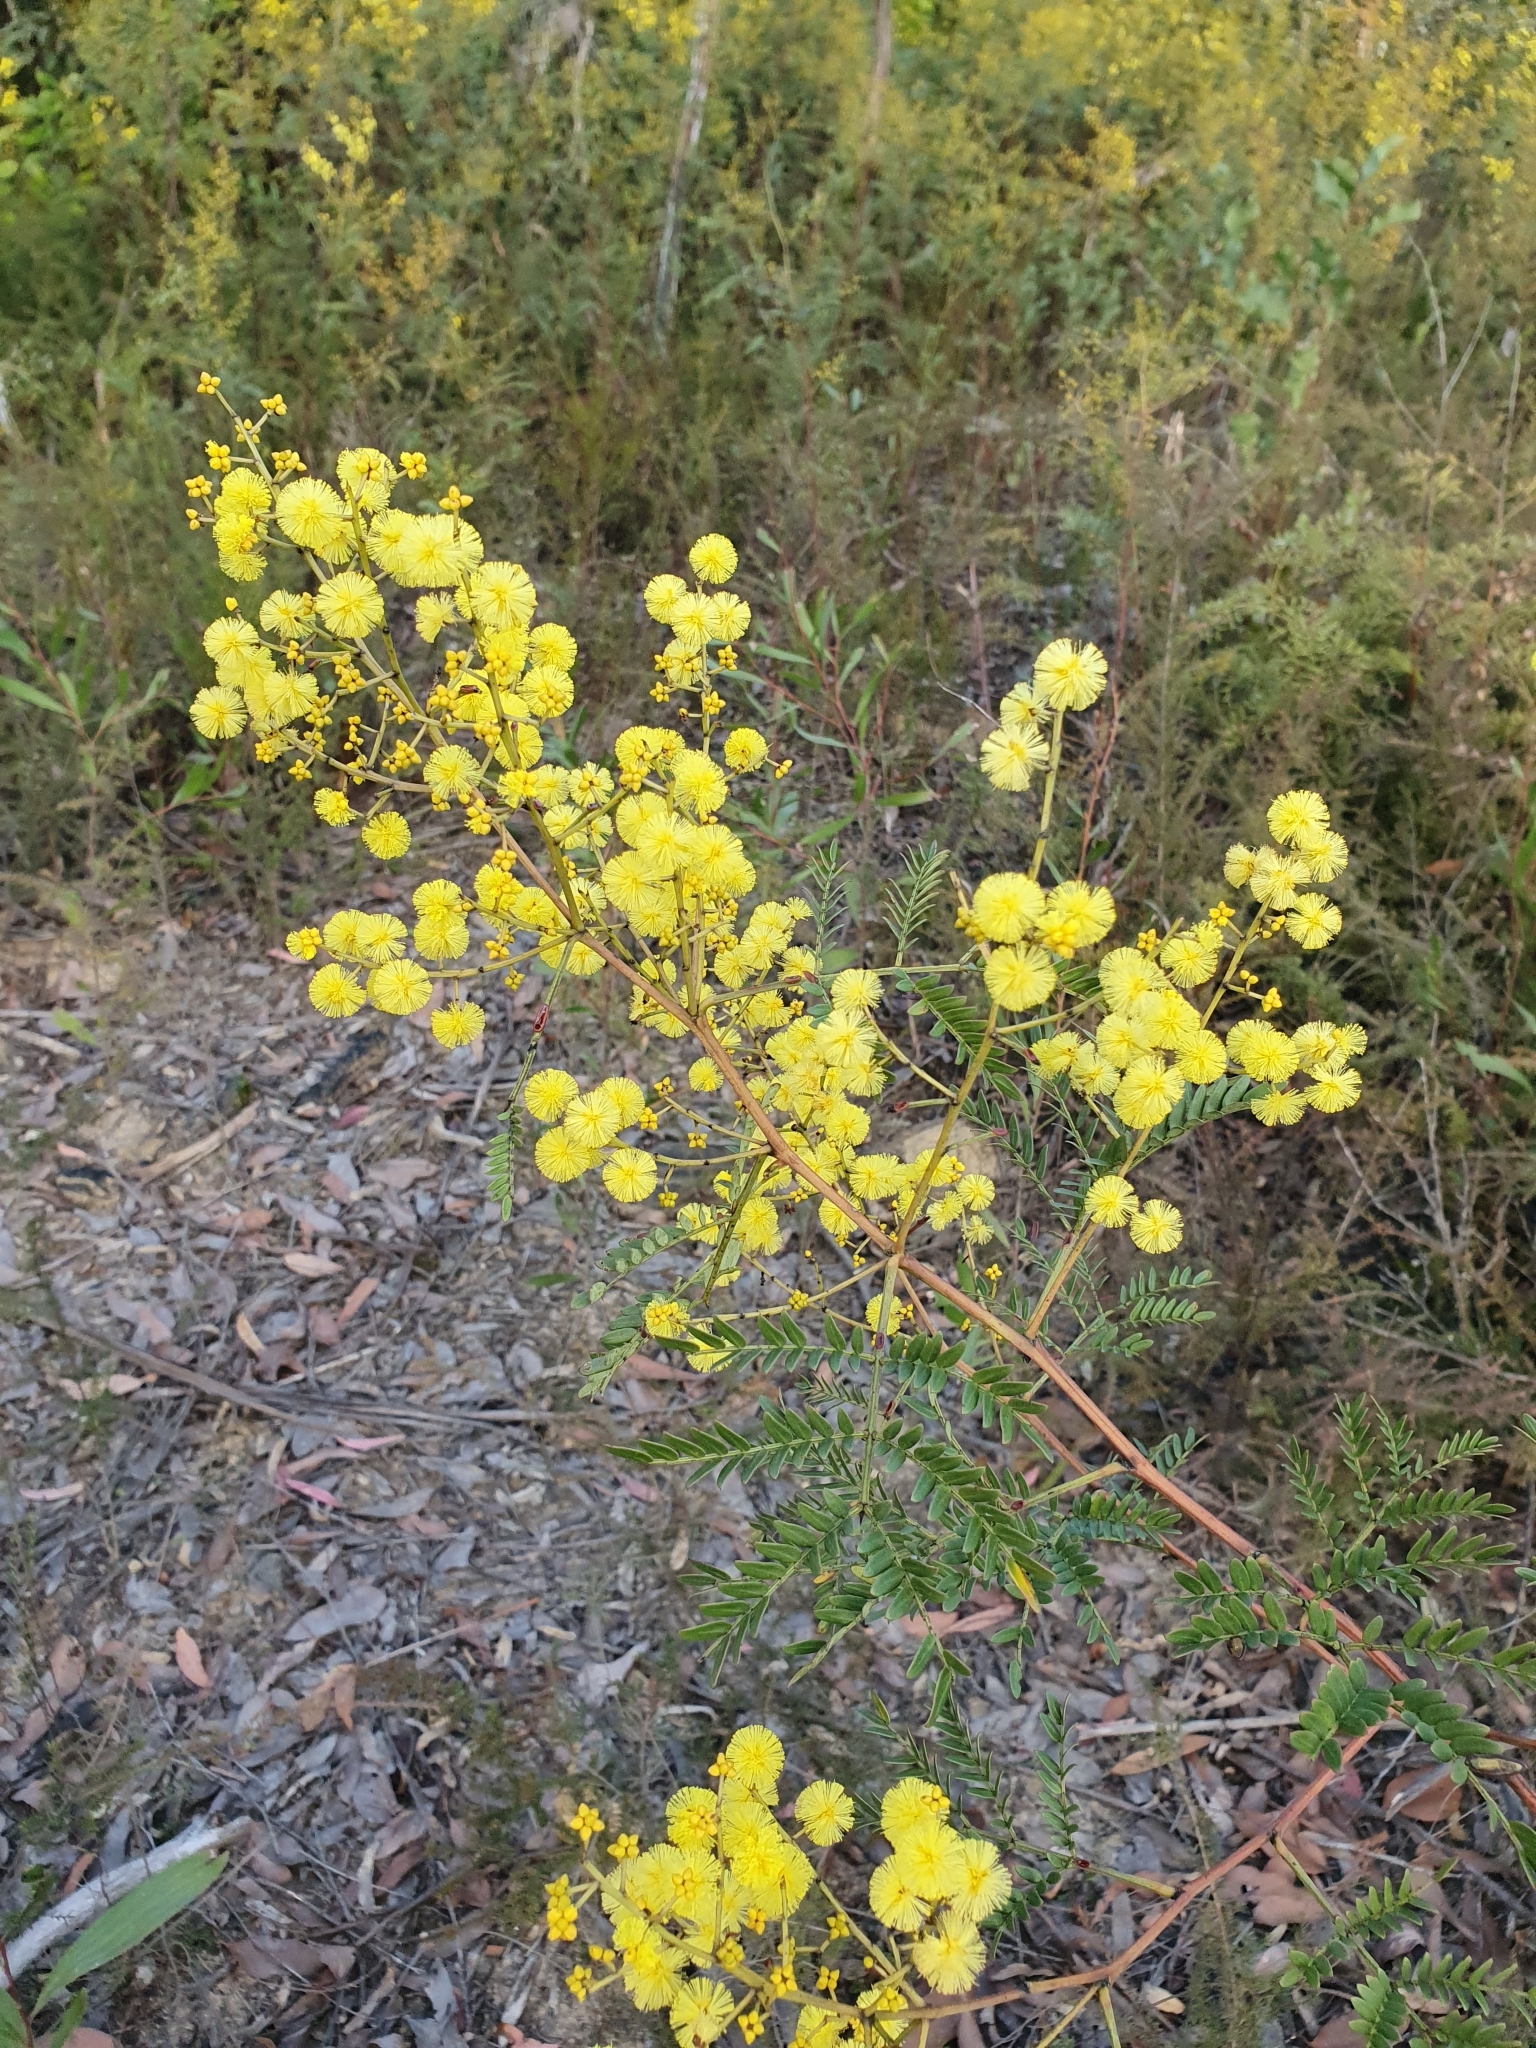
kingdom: Plantae
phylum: Tracheophyta
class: Magnoliopsida
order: Fabales
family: Fabaceae
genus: Acacia
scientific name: Acacia terminalis
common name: Cedar wattle
